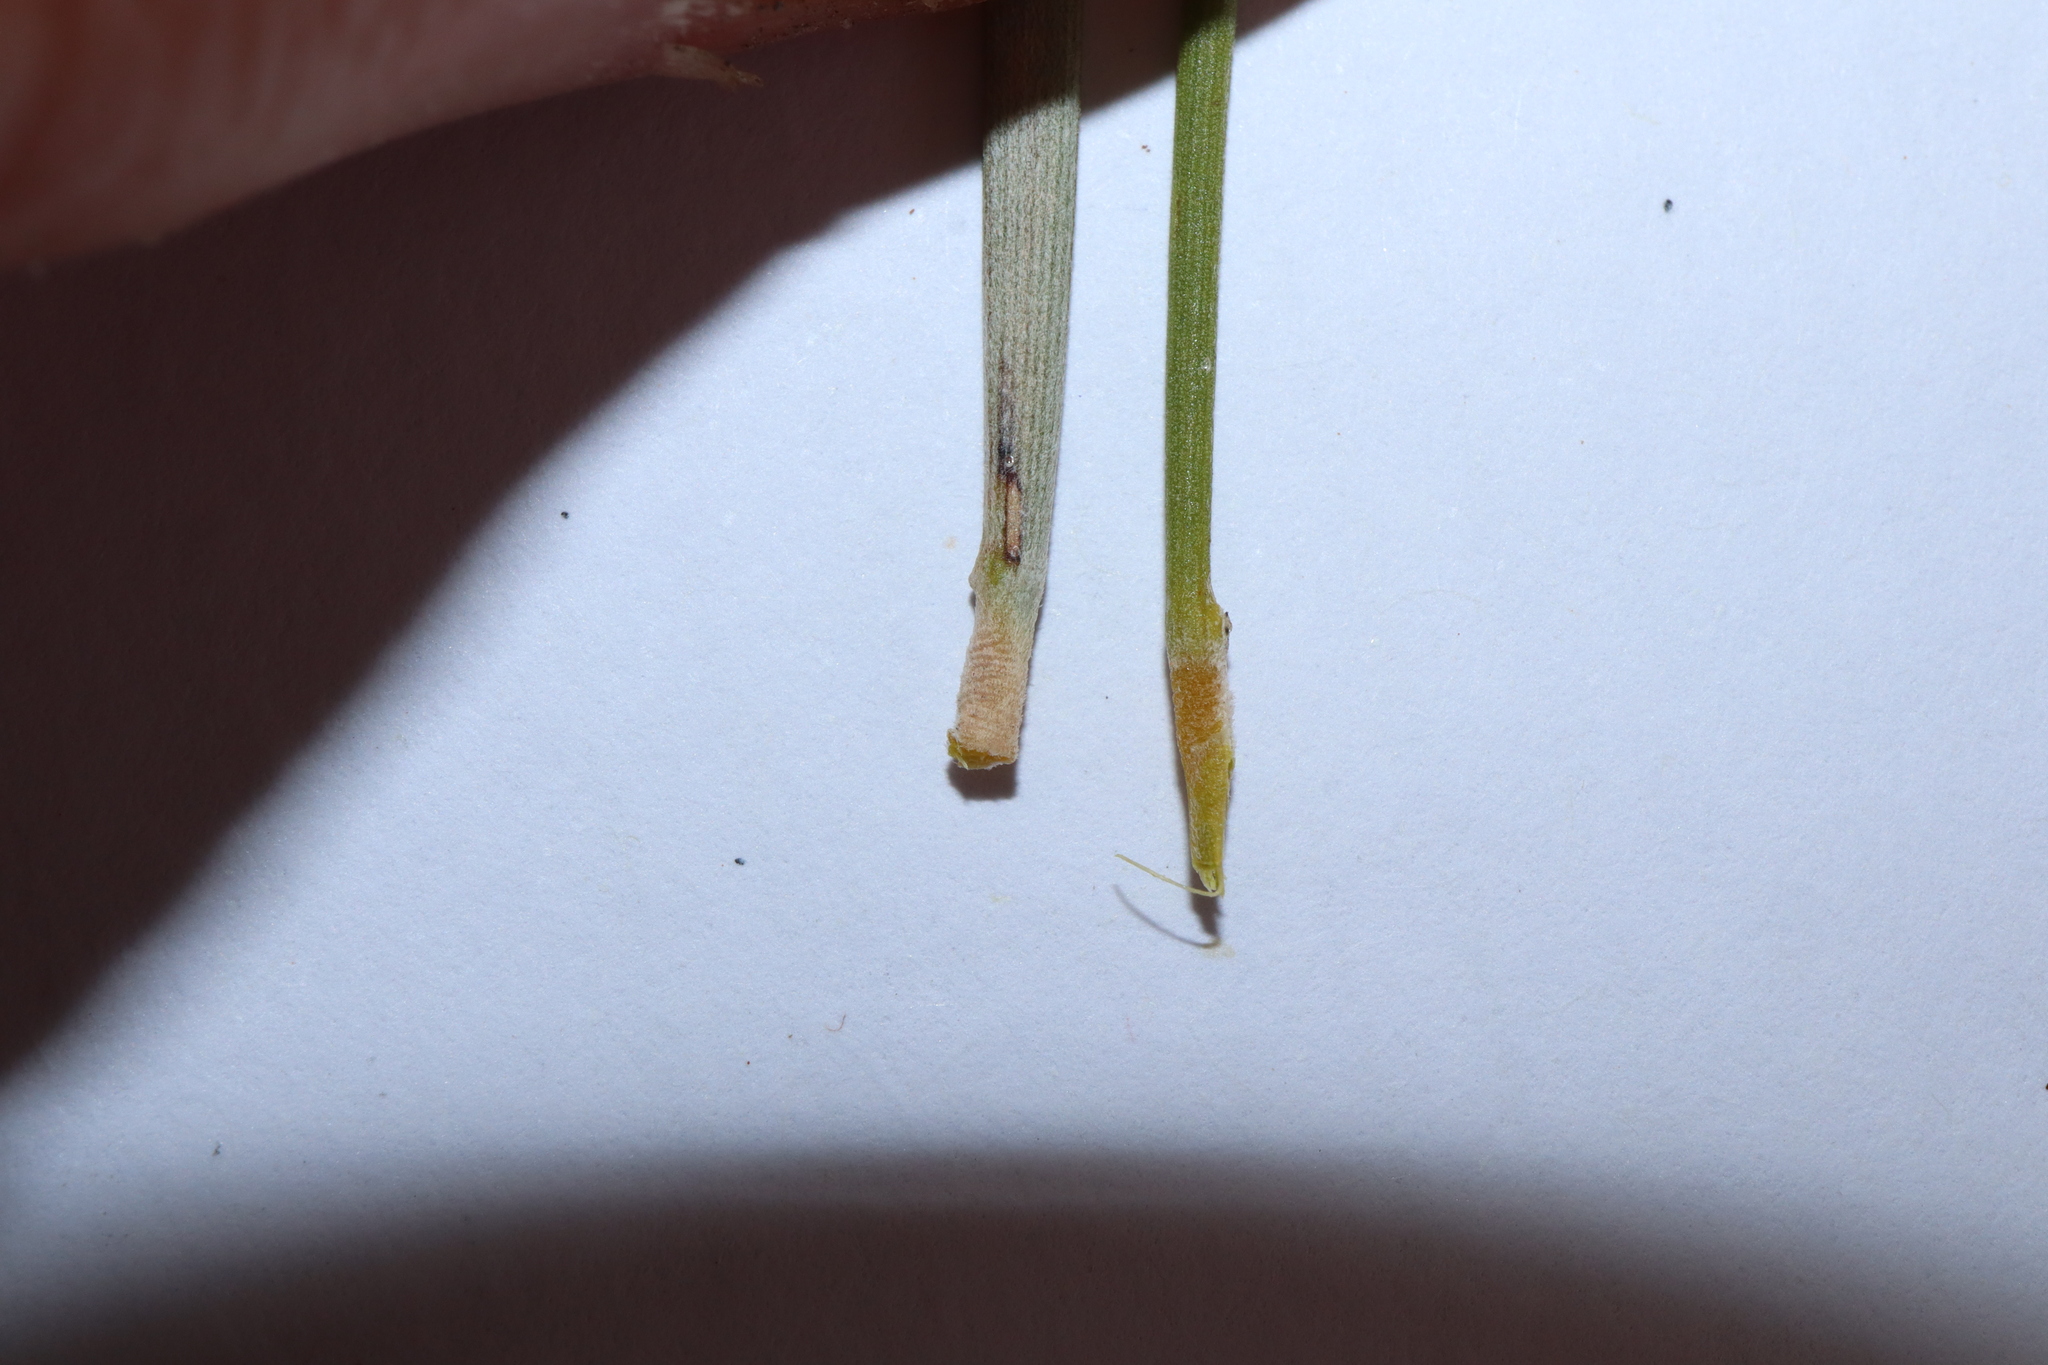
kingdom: Plantae
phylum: Tracheophyta
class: Magnoliopsida
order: Fabales
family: Fabaceae
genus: Acacia
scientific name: Acacia loderi
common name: Broken hill gidgee
